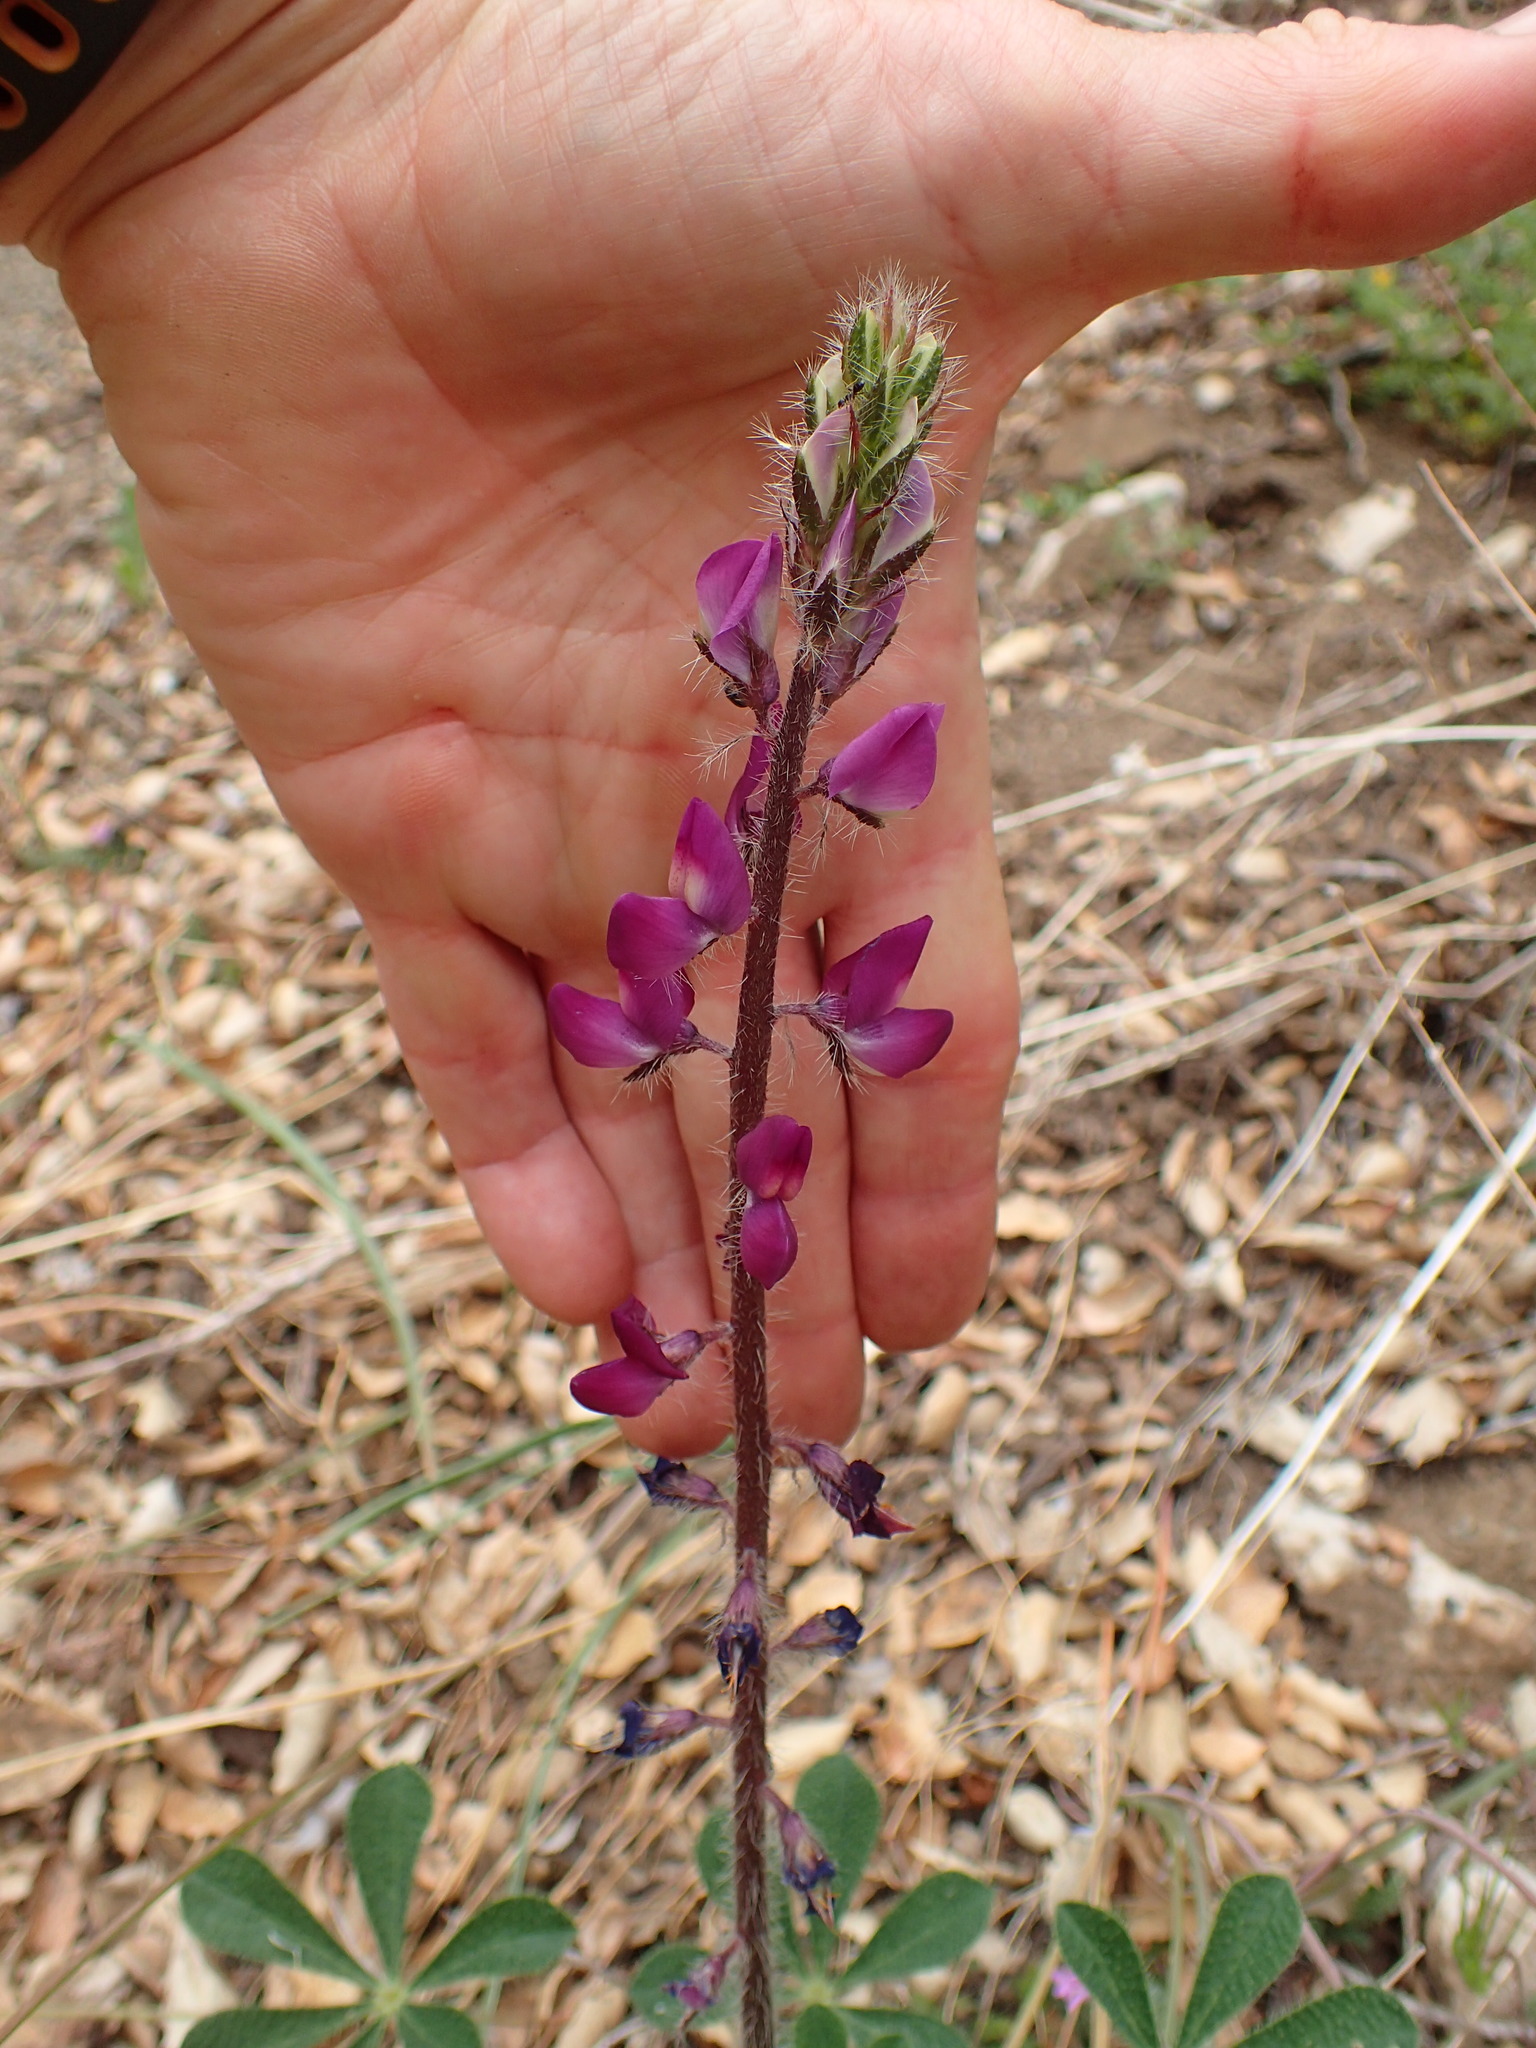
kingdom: Plantae
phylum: Tracheophyta
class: Magnoliopsida
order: Fabales
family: Fabaceae
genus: Lupinus
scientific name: Lupinus hirsutissimus
